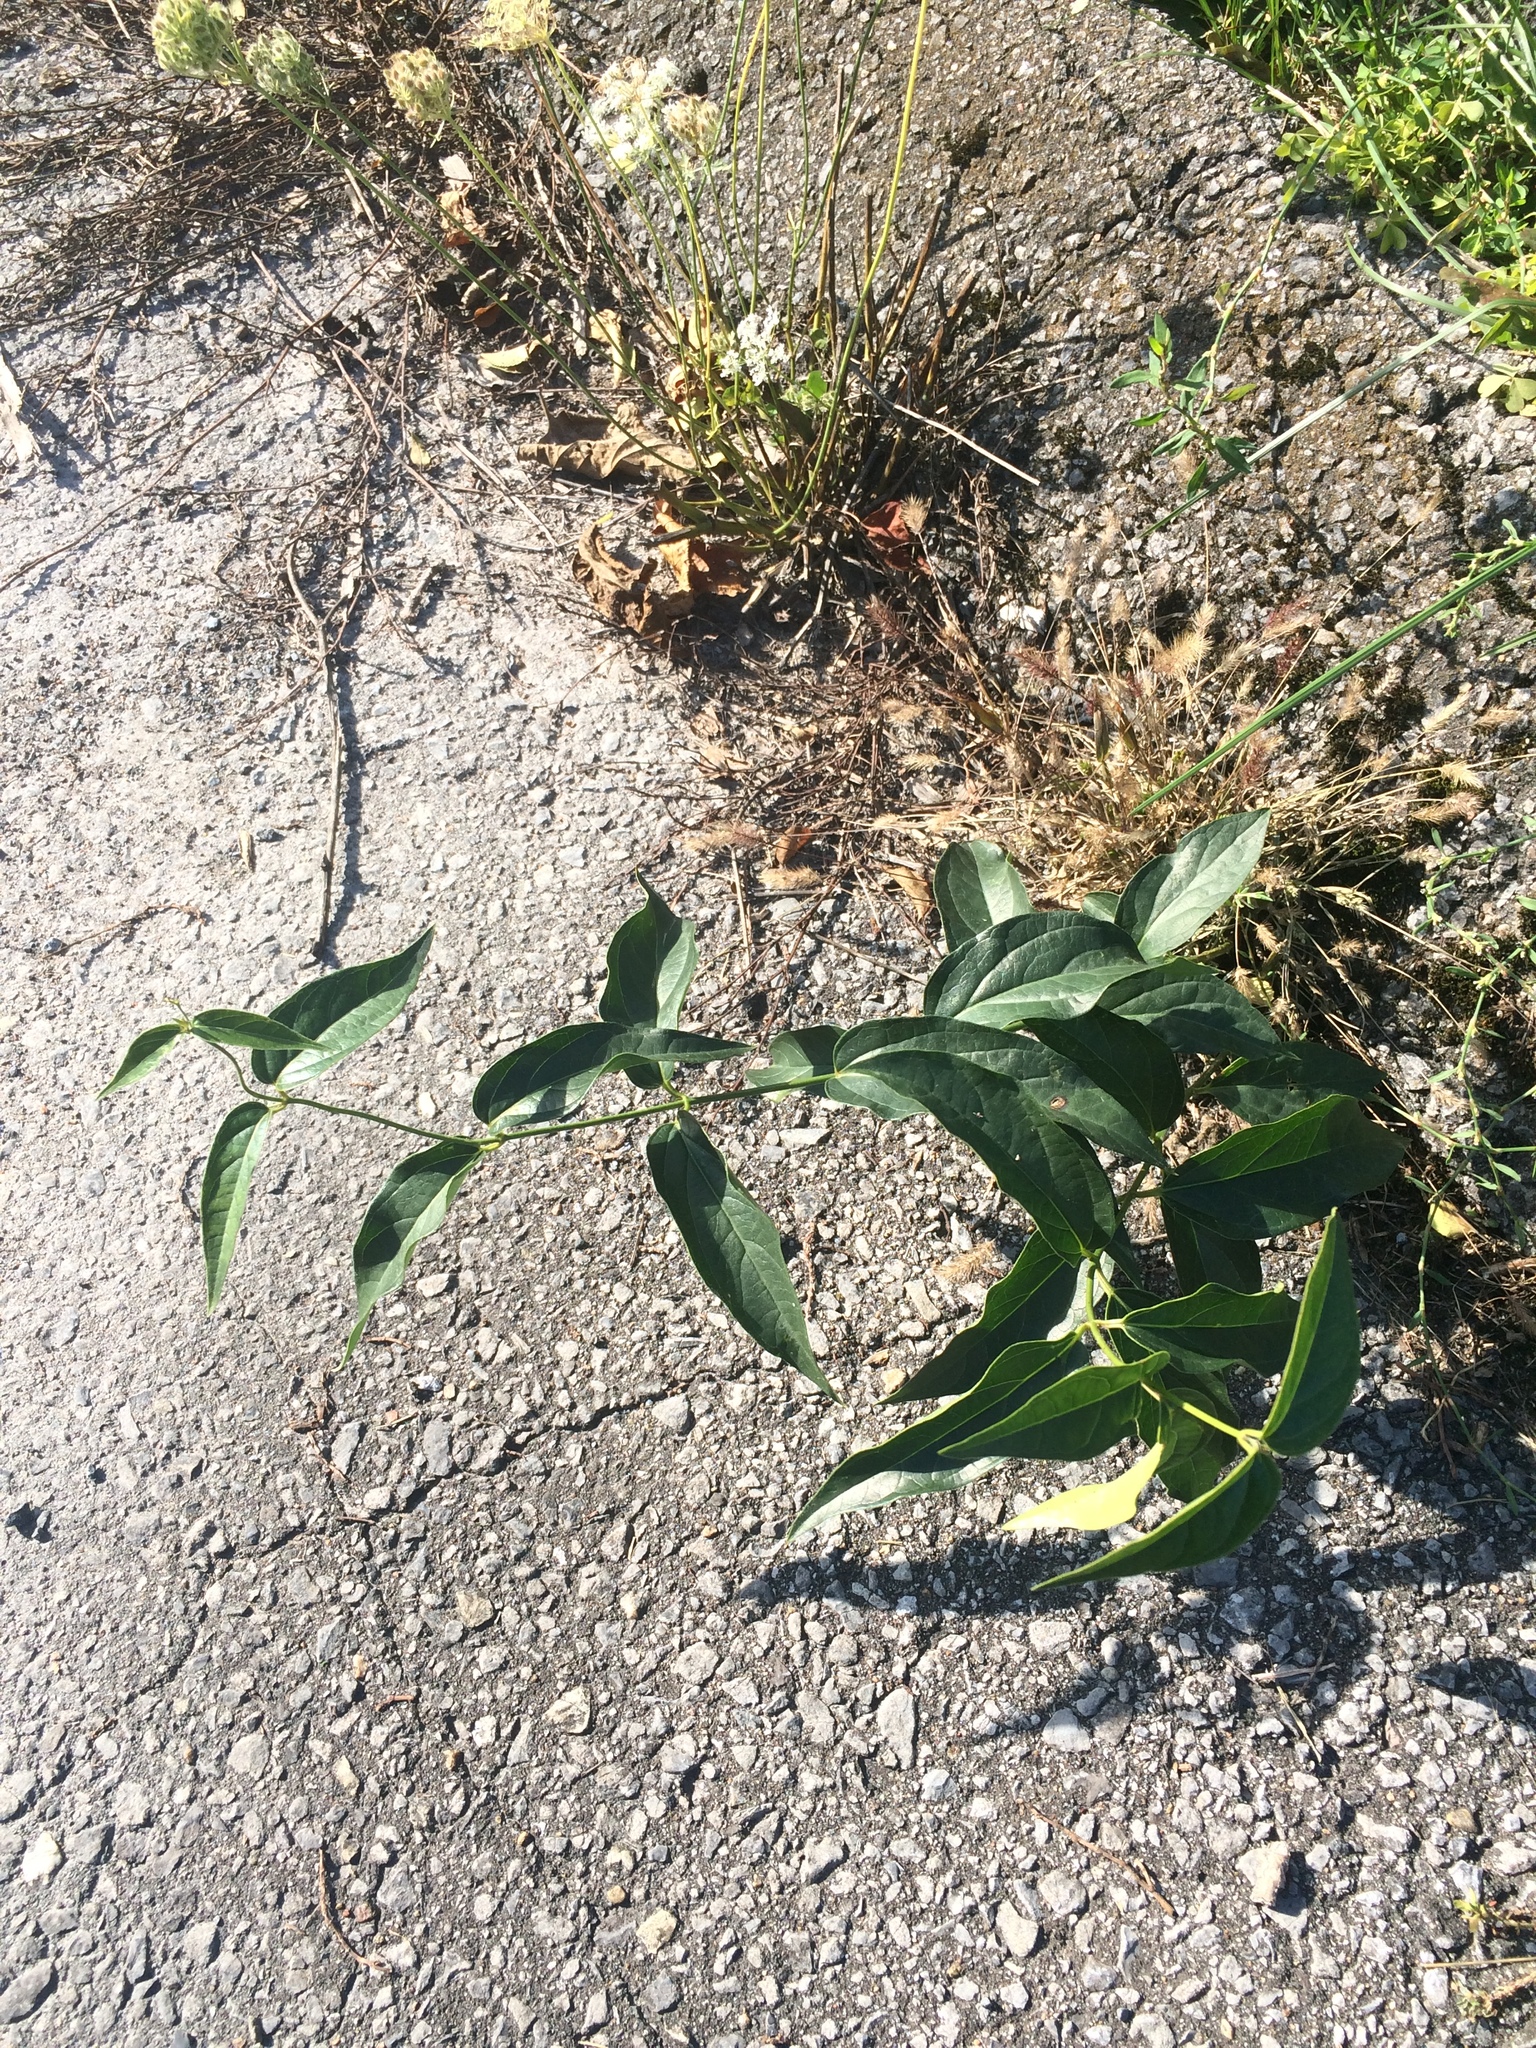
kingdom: Plantae
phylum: Tracheophyta
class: Magnoliopsida
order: Gentianales
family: Apocynaceae
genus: Vincetoxicum
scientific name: Vincetoxicum rossicum
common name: Dog-strangling vine
